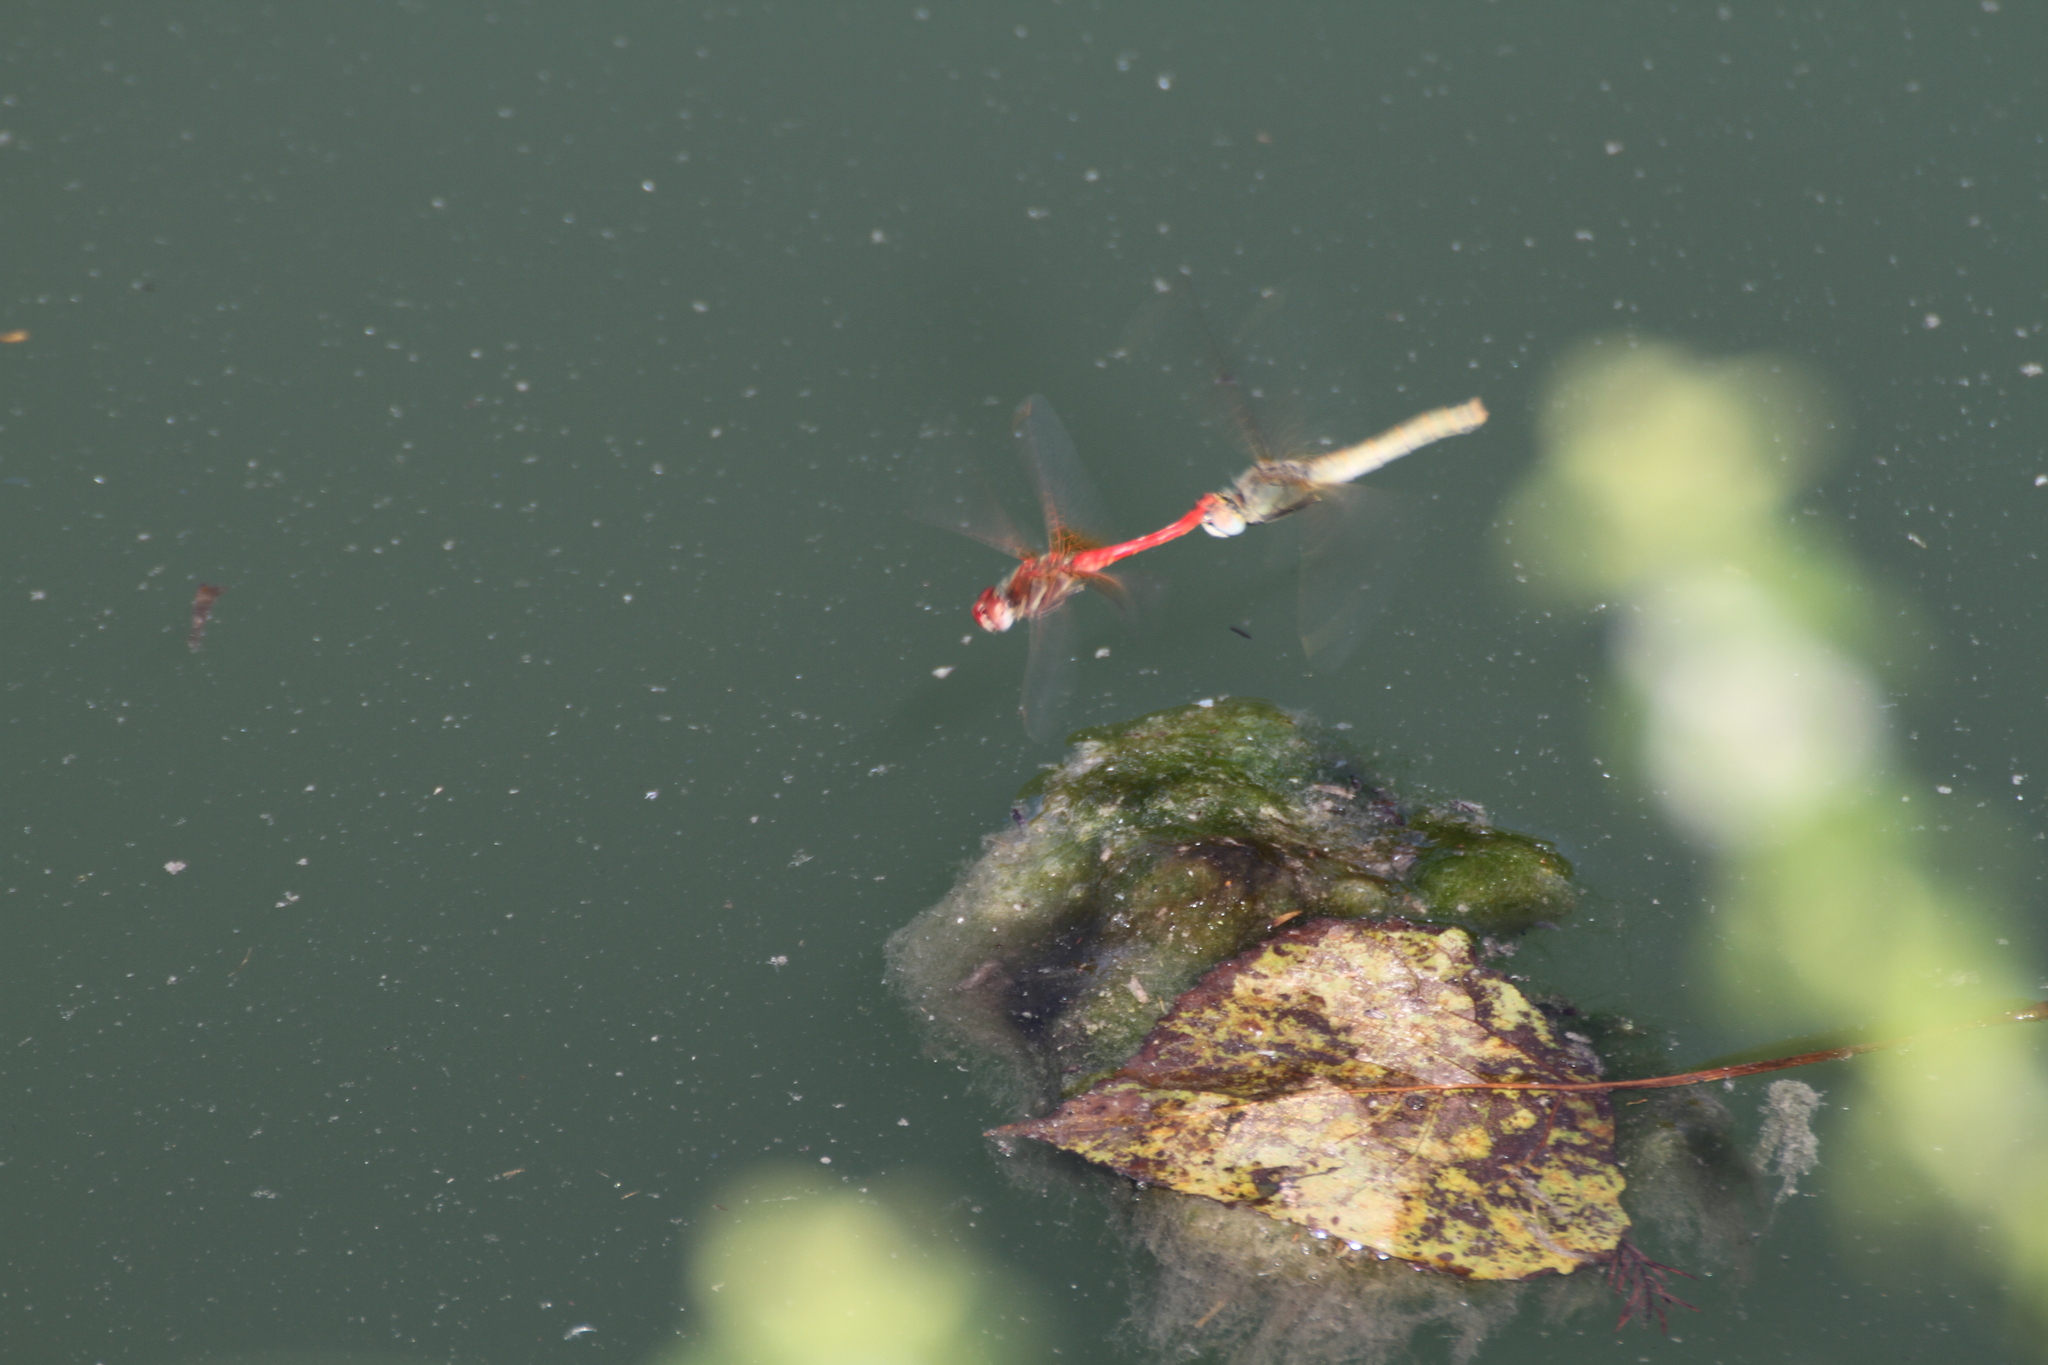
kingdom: Animalia
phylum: Arthropoda
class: Insecta
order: Odonata
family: Libellulidae
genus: Sympetrum
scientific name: Sympetrum fonscolombii
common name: Red-veined darter
